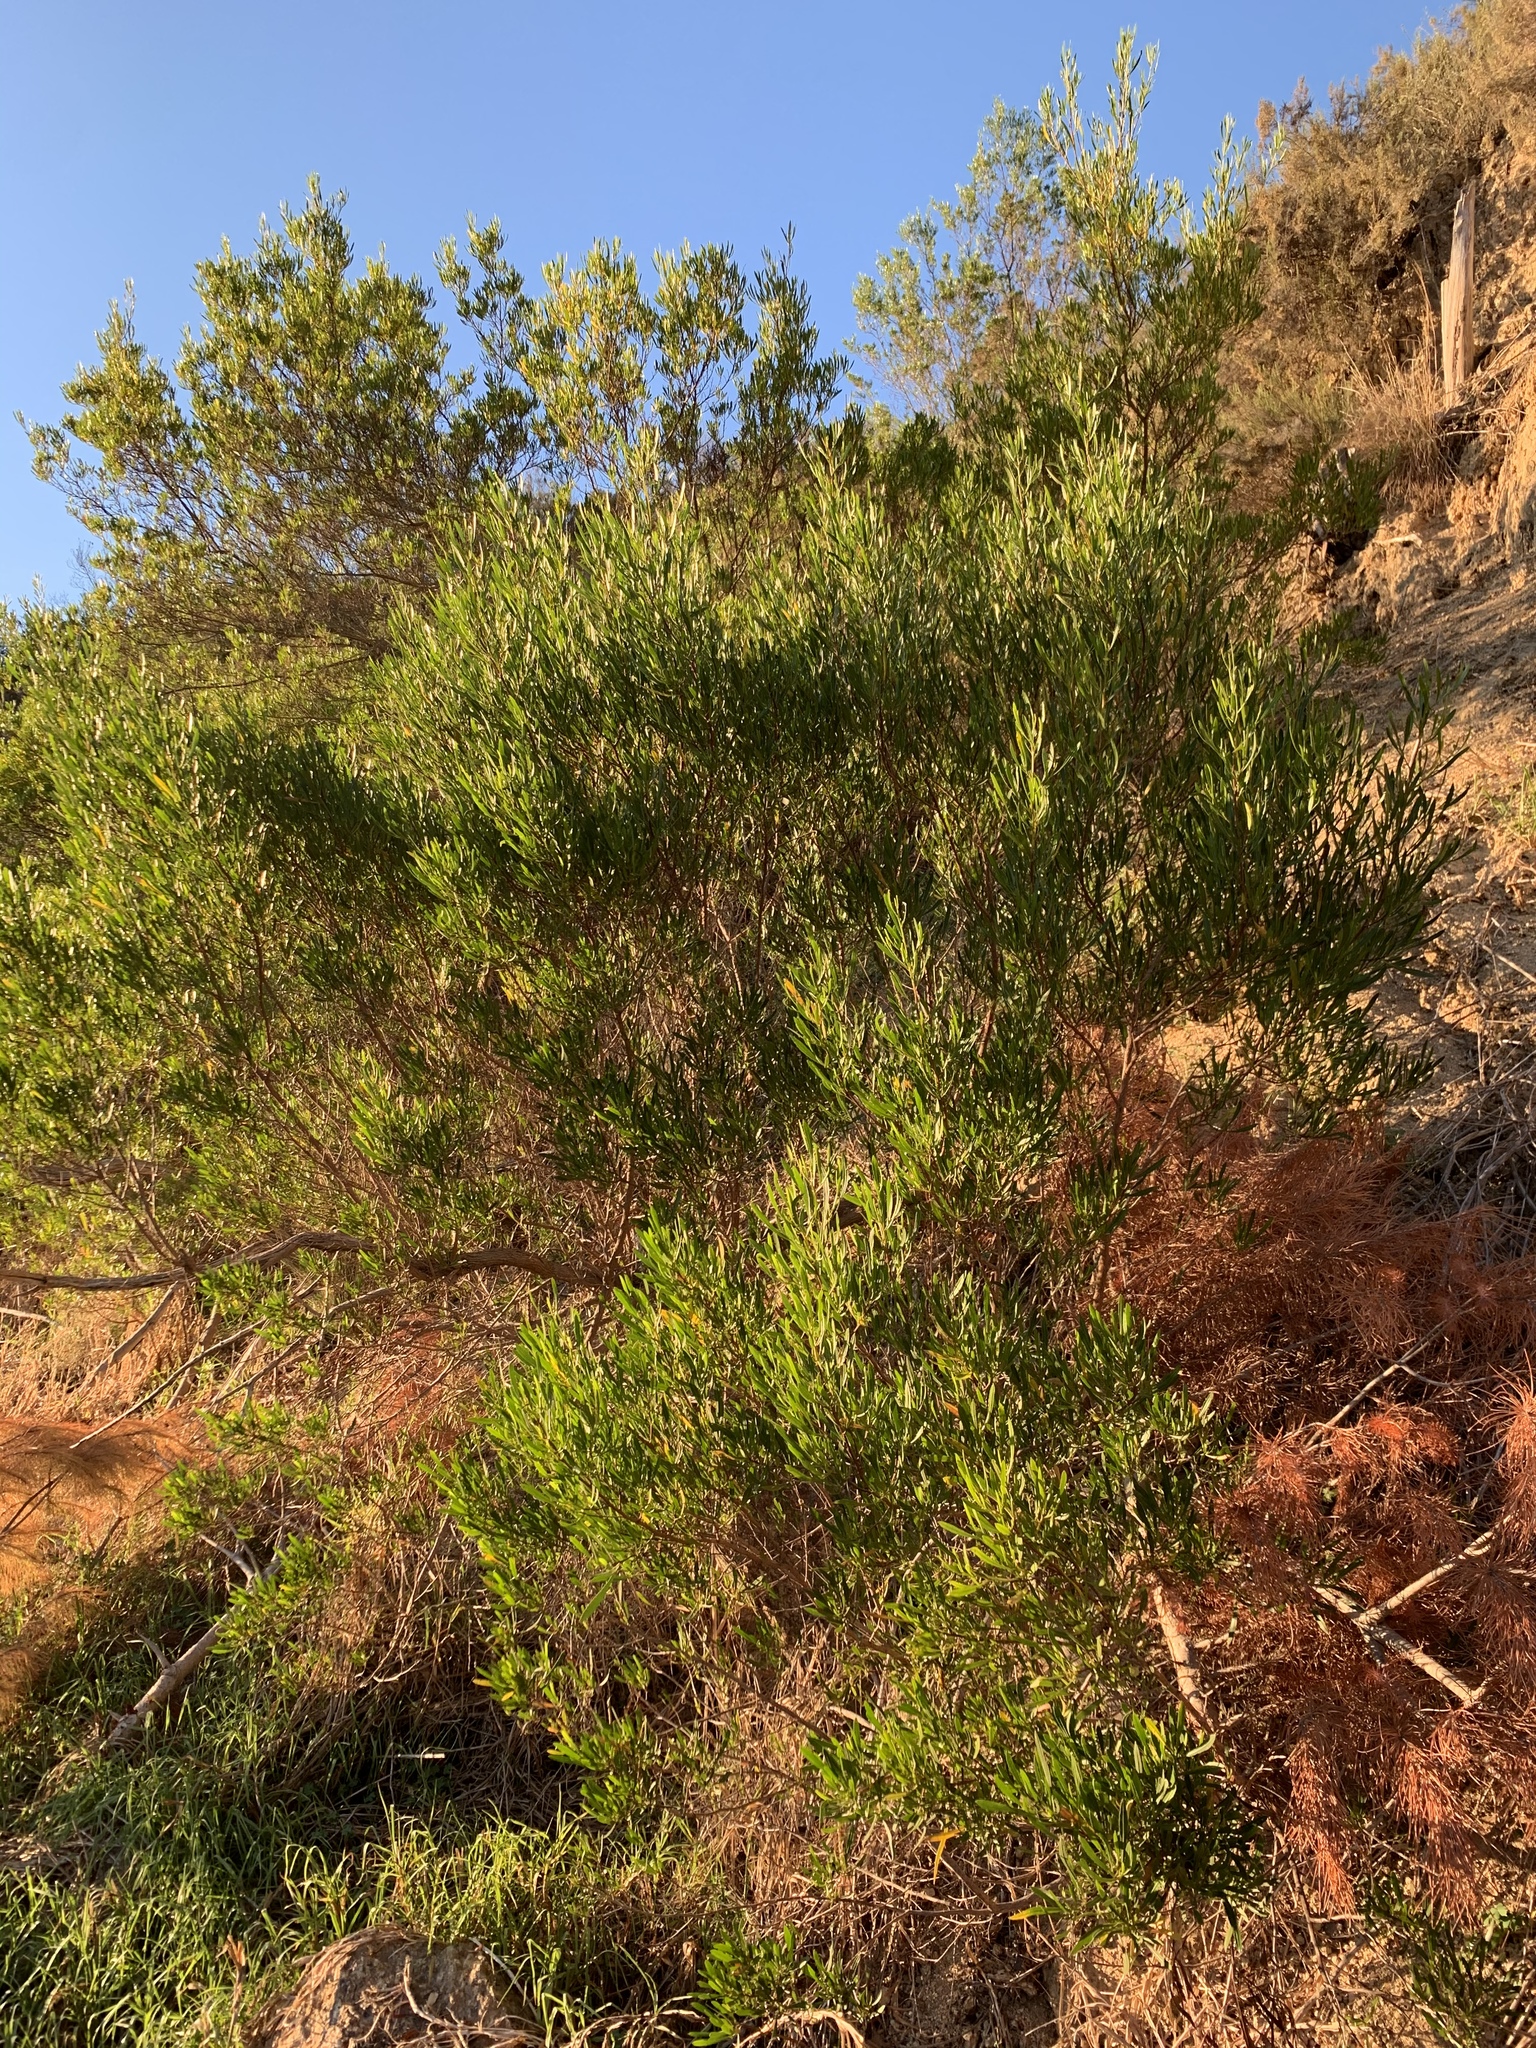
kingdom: Plantae
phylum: Tracheophyta
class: Magnoliopsida
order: Sapindales
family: Sapindaceae
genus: Dodonaea
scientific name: Dodonaea viscosa
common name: Hopbush
